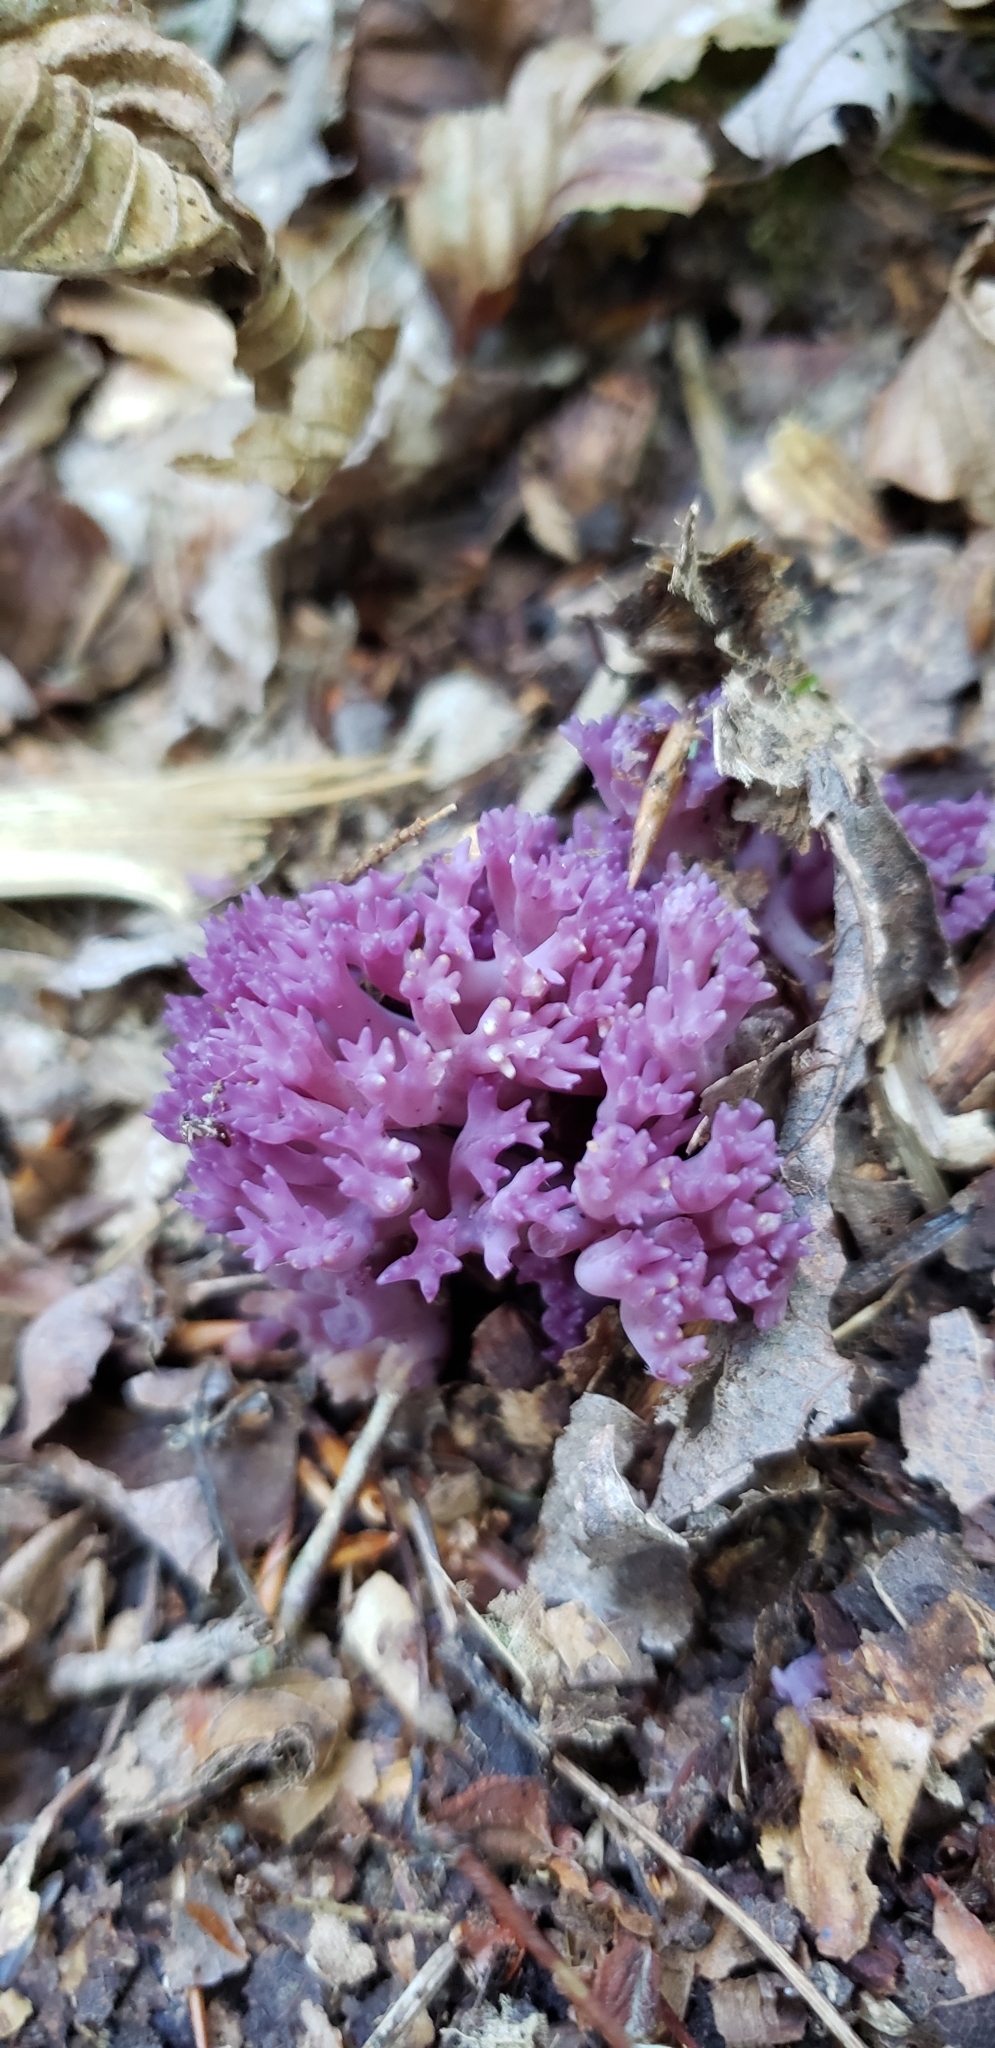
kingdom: Fungi
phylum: Basidiomycota
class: Agaricomycetes
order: Agaricales
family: Clavariaceae
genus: Clavaria
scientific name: Clavaria zollingeri
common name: Violet coral
